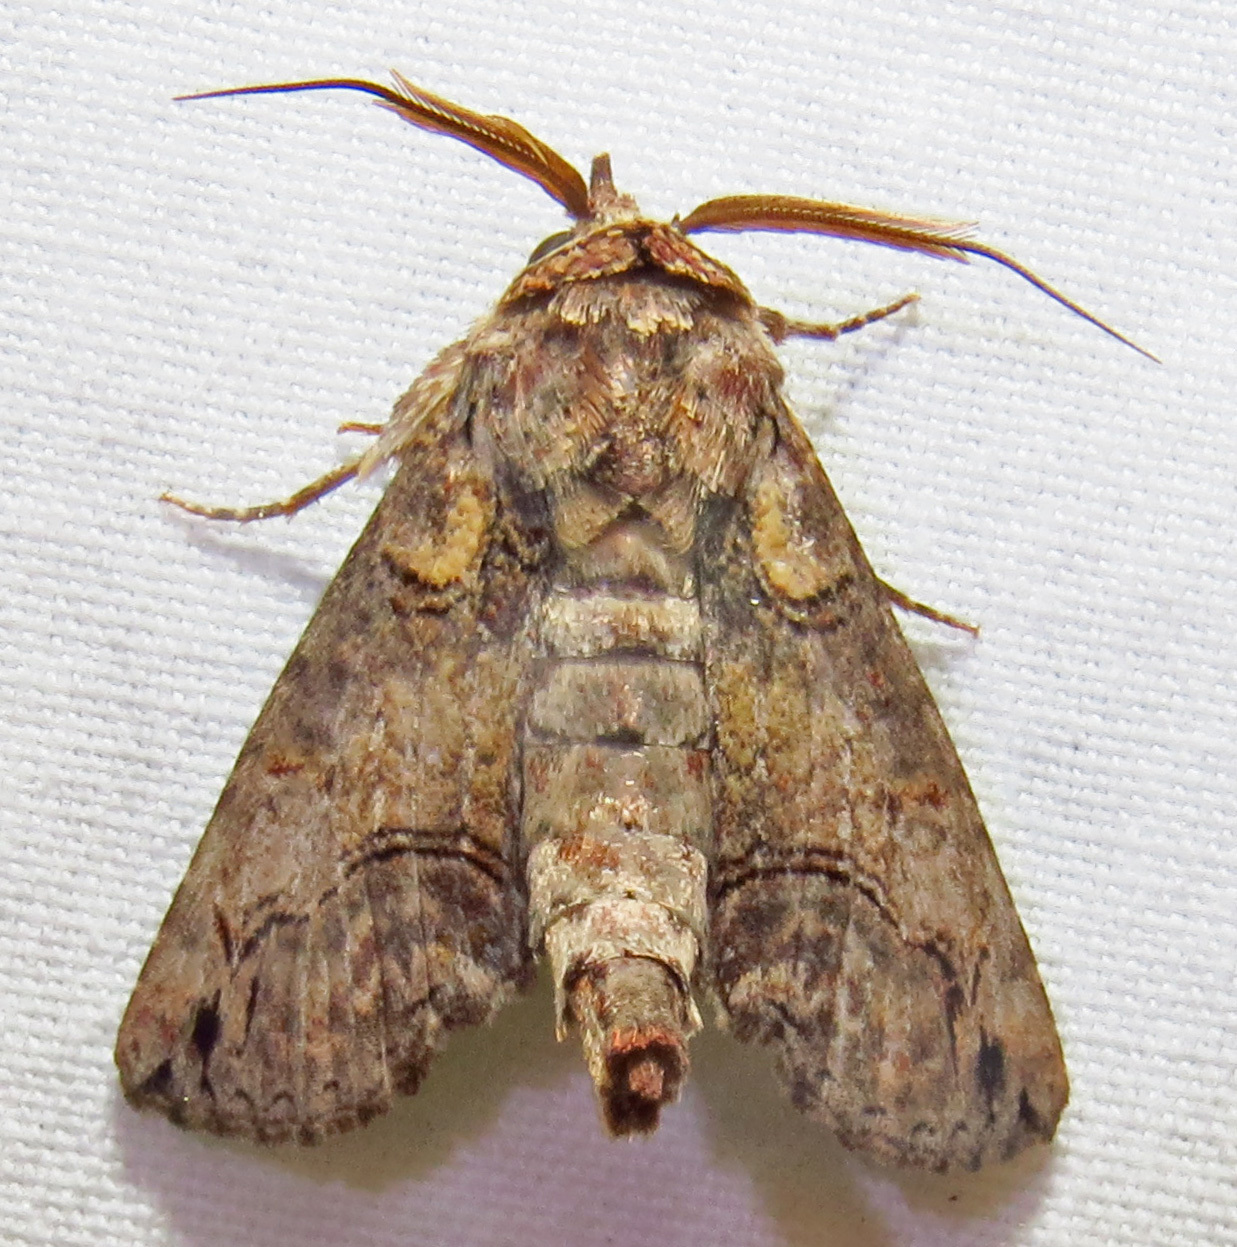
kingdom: Animalia
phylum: Arthropoda
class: Insecta
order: Lepidoptera
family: Euteliidae
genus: Paectes
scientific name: Paectes abrostoloides
